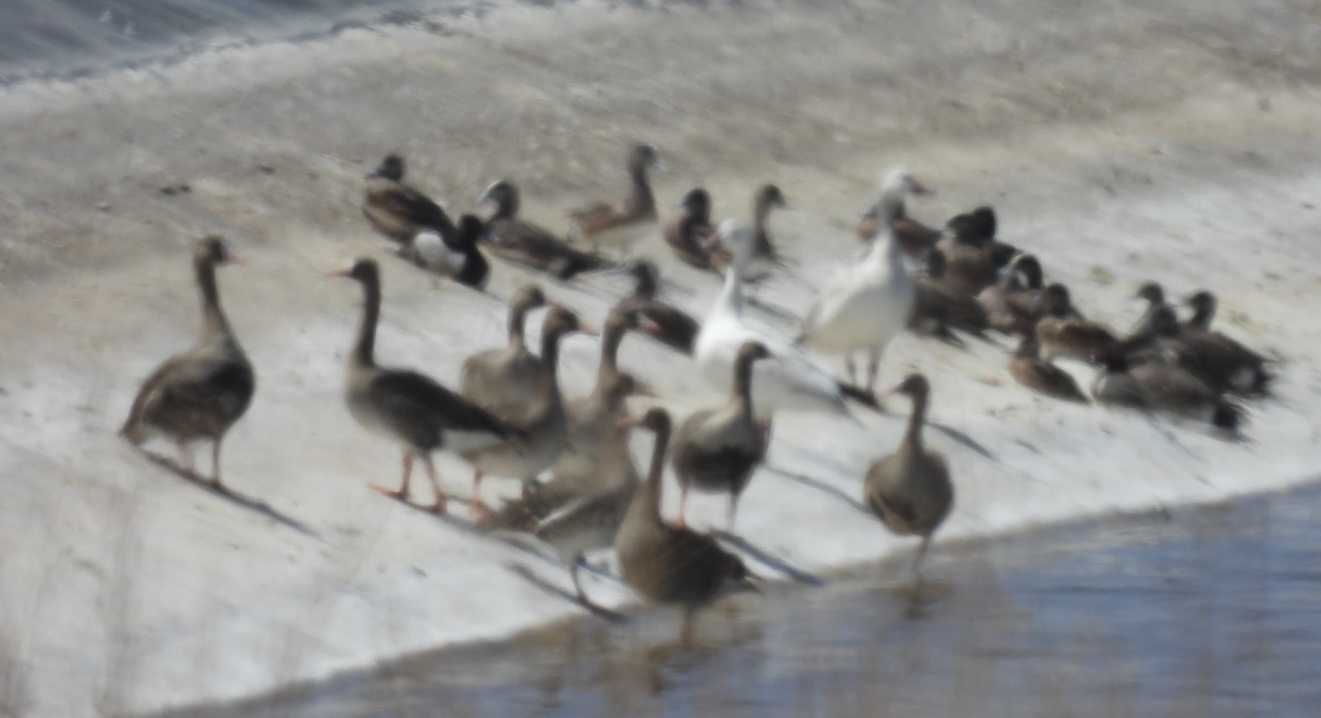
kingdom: Animalia
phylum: Chordata
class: Aves
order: Anseriformes
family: Anatidae
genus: Anser
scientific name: Anser albifrons
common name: Greater white-fronted goose
